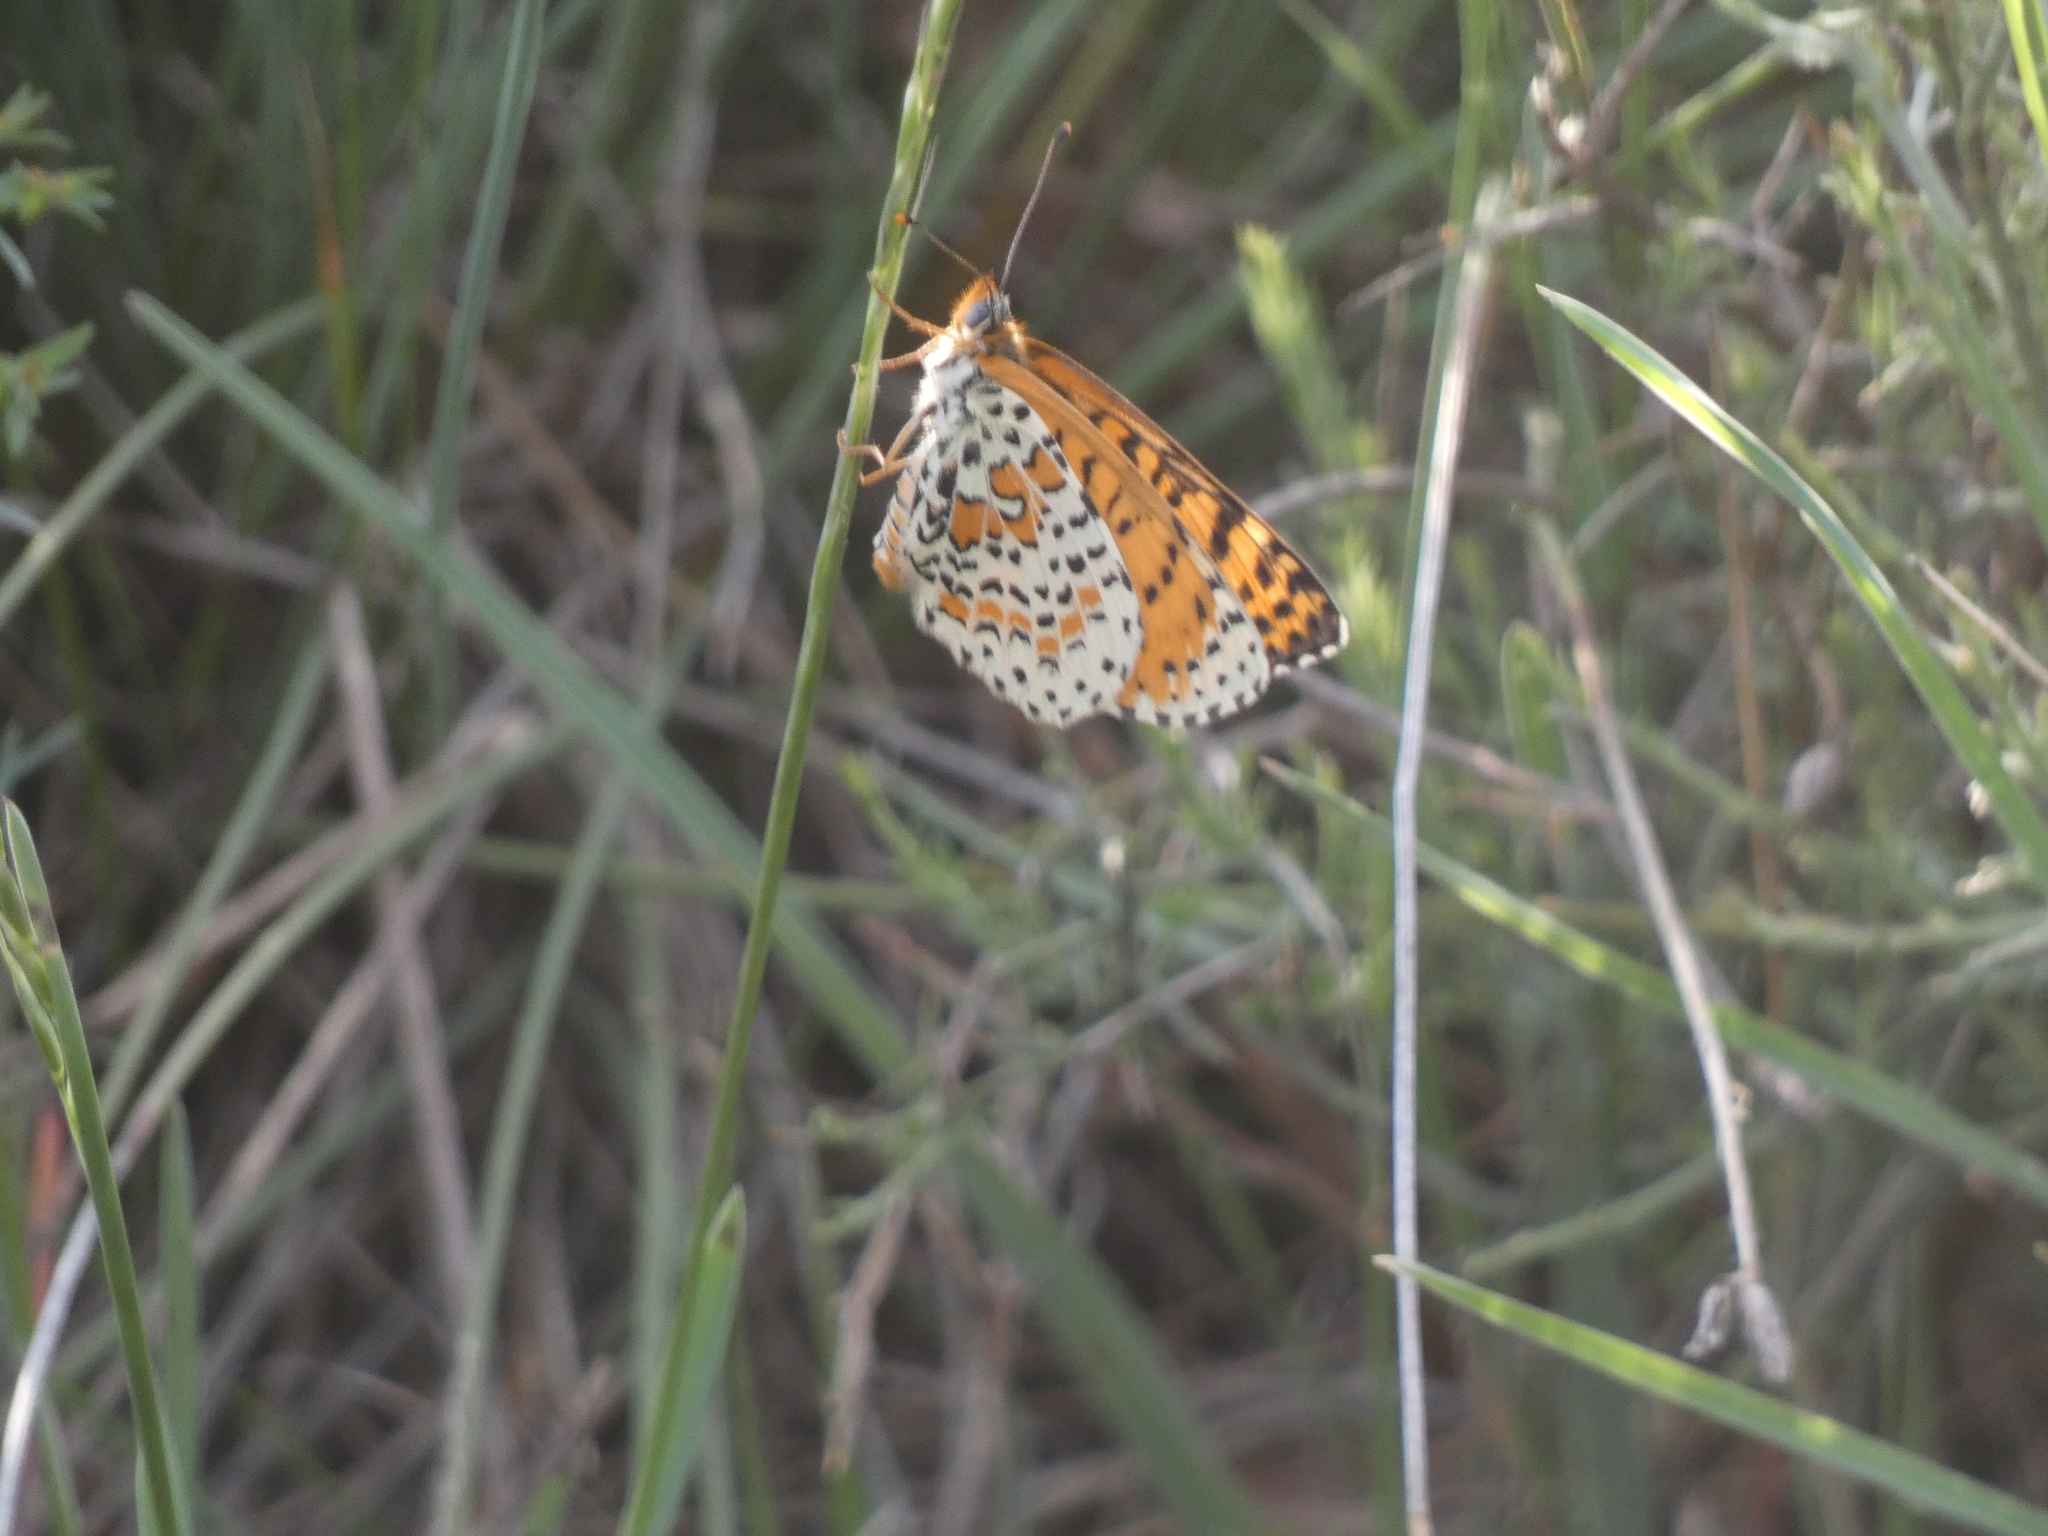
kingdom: Animalia
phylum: Arthropoda
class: Insecta
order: Lepidoptera
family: Nymphalidae
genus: Melitaea
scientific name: Melitaea didyma
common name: Spotted fritillary
